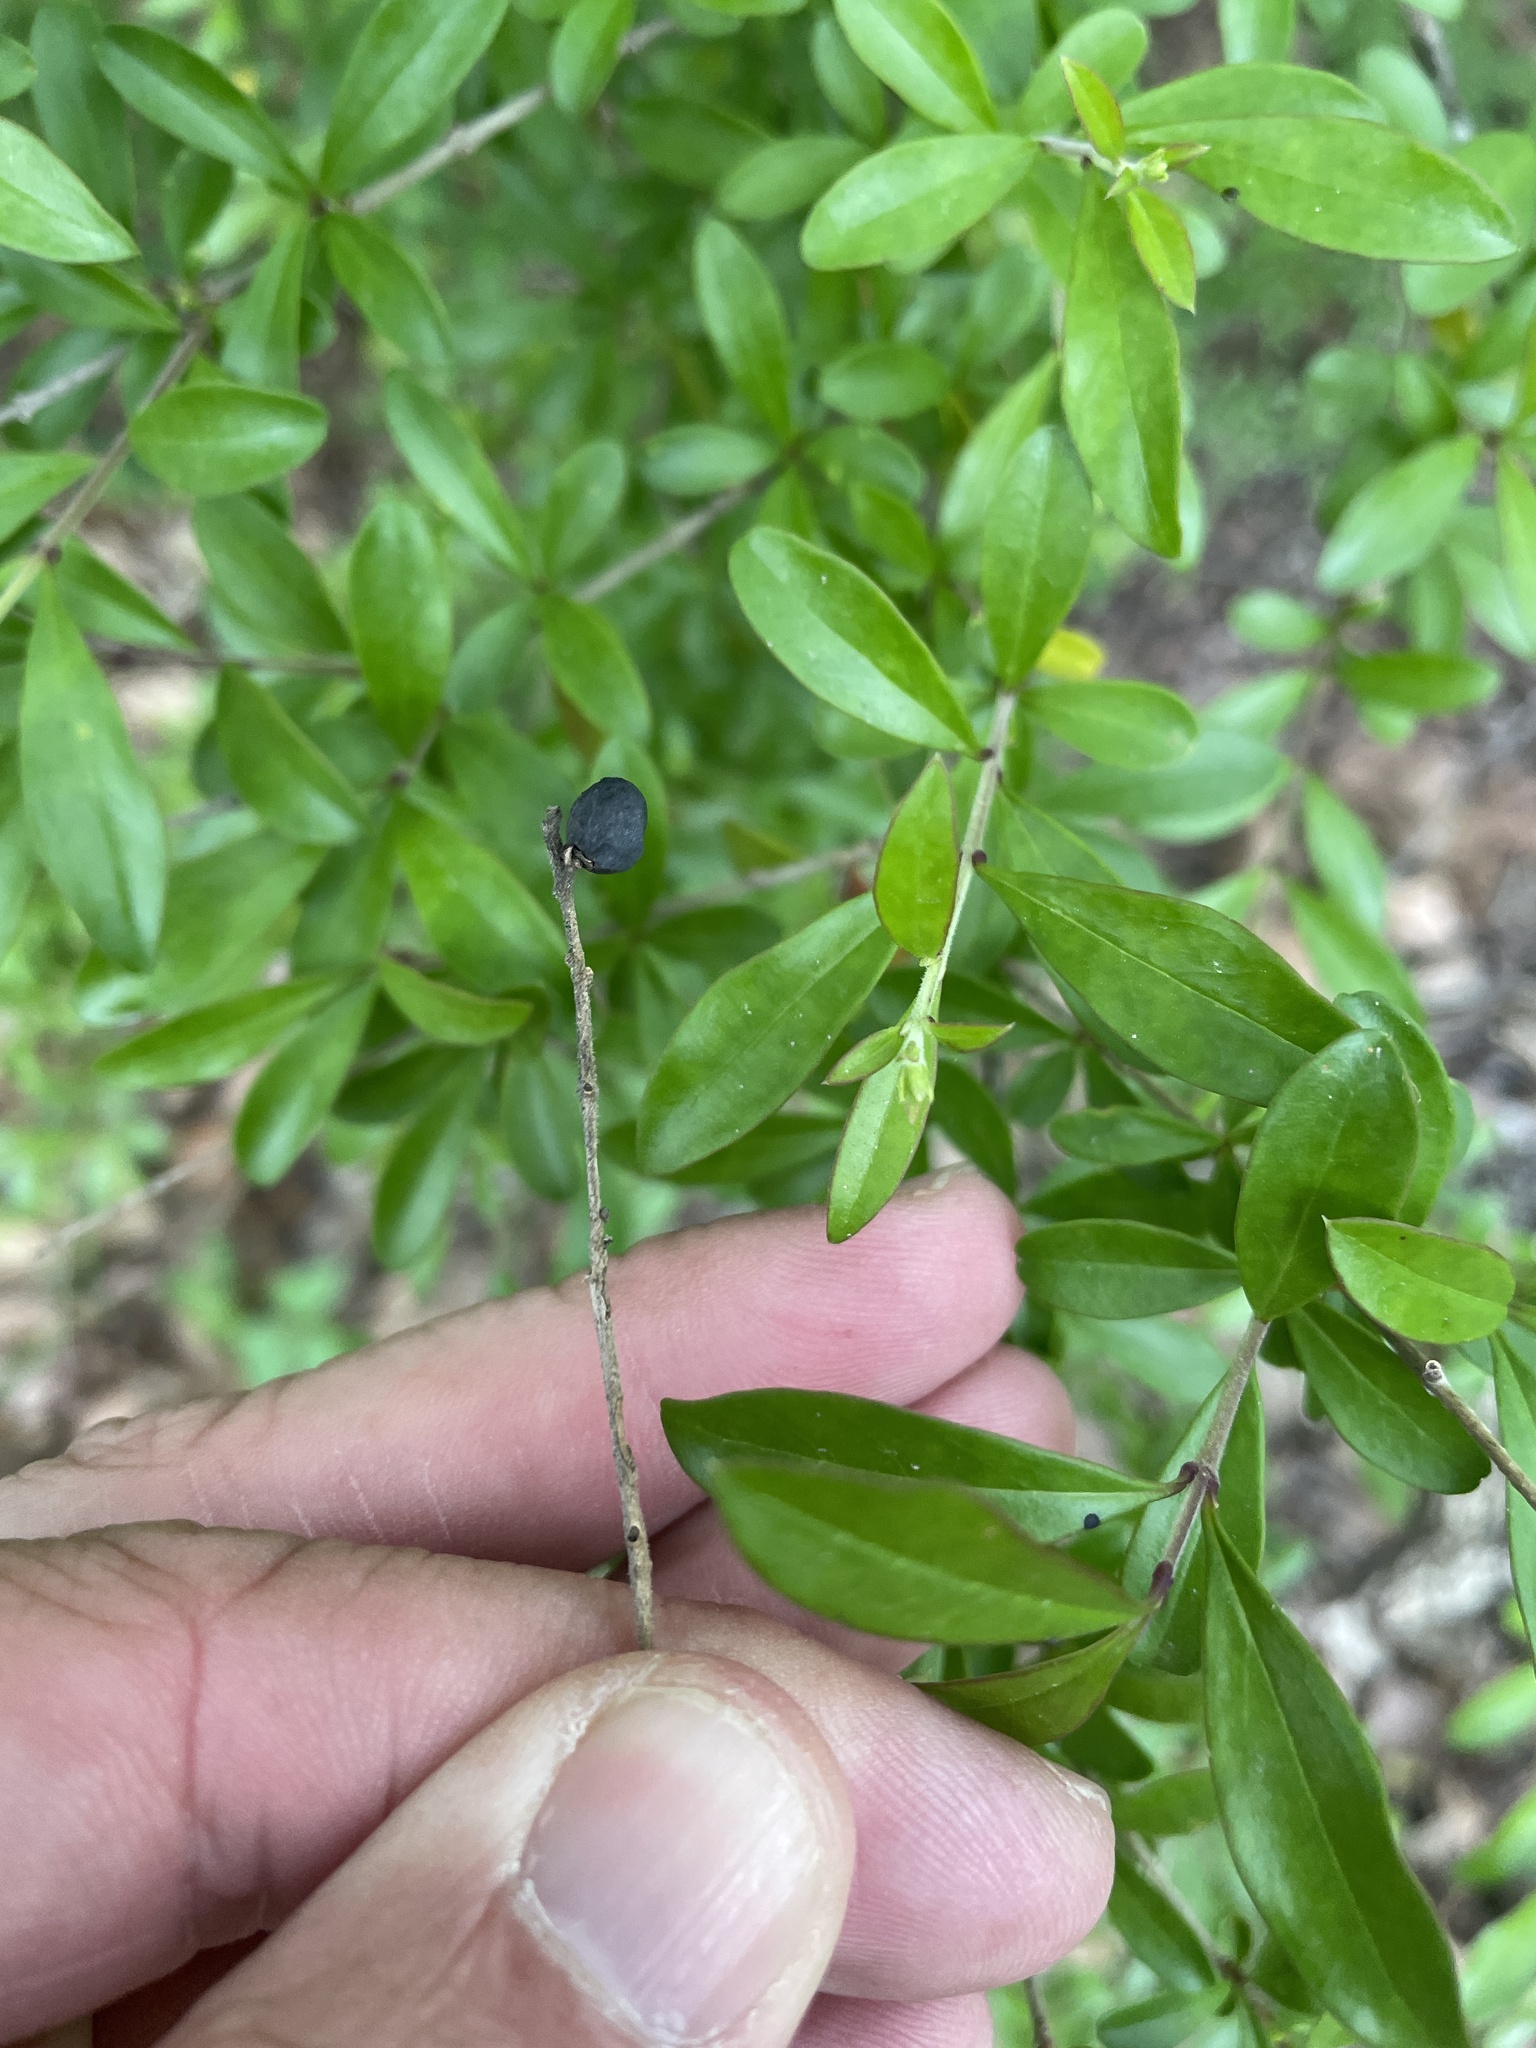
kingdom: Plantae
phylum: Tracheophyta
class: Magnoliopsida
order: Lamiales
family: Oleaceae
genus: Ligustrum
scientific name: Ligustrum quihoui
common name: Waxyleaf privet
